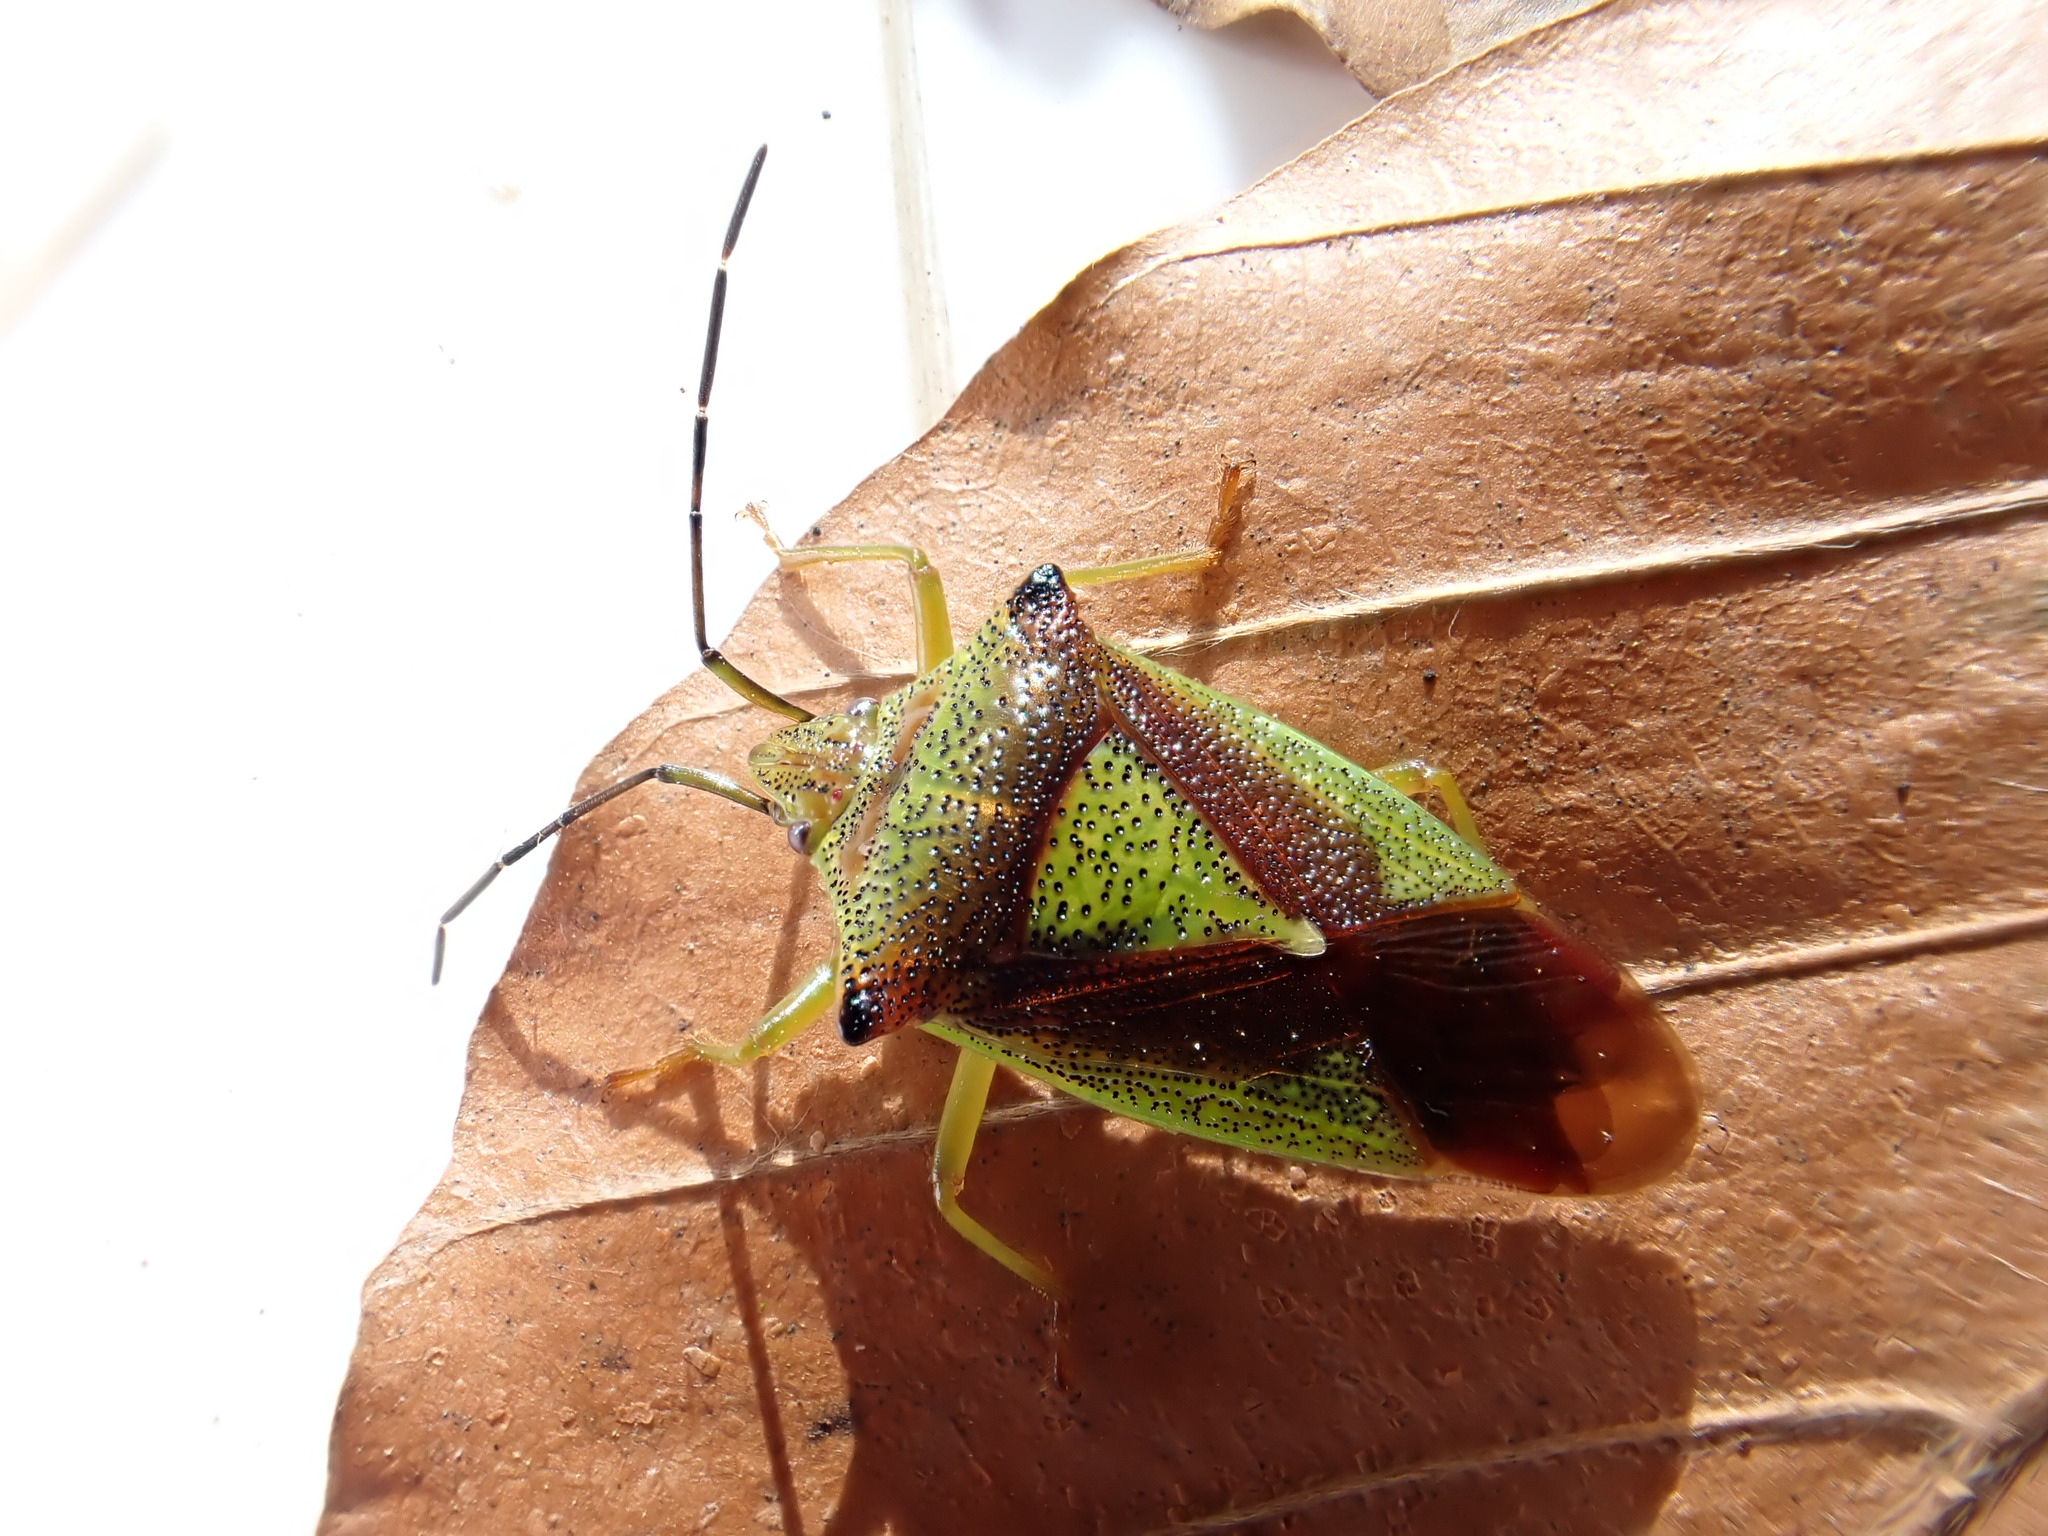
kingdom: Animalia
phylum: Arthropoda
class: Insecta
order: Hemiptera
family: Acanthosomatidae
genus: Acanthosoma
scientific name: Acanthosoma haemorrhoidale
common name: Hawthorn shieldbug
